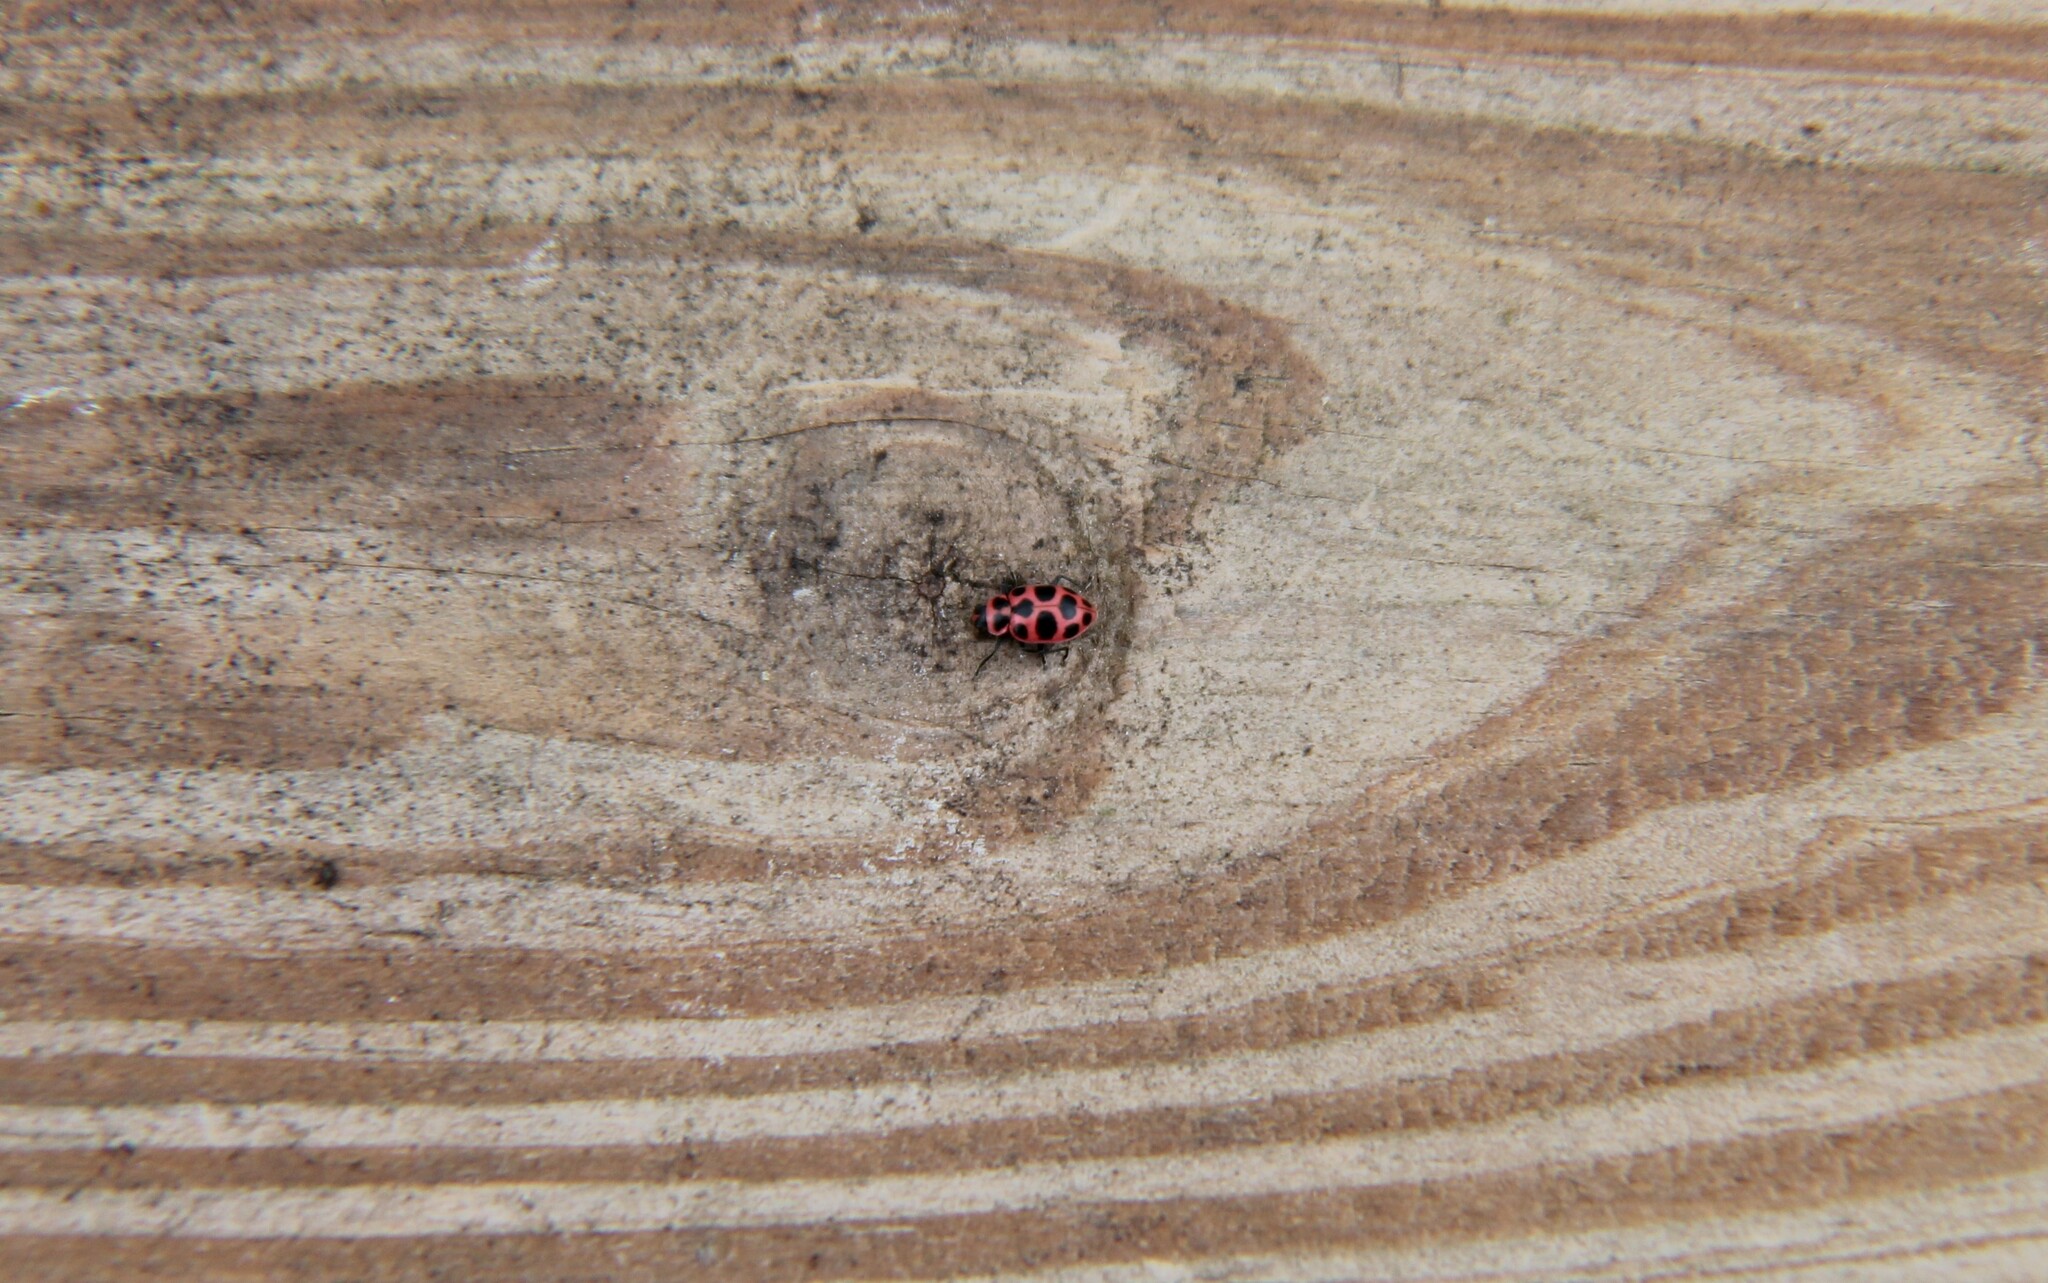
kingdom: Animalia
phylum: Arthropoda
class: Insecta
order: Coleoptera
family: Coccinellidae
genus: Coleomegilla
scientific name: Coleomegilla maculata
